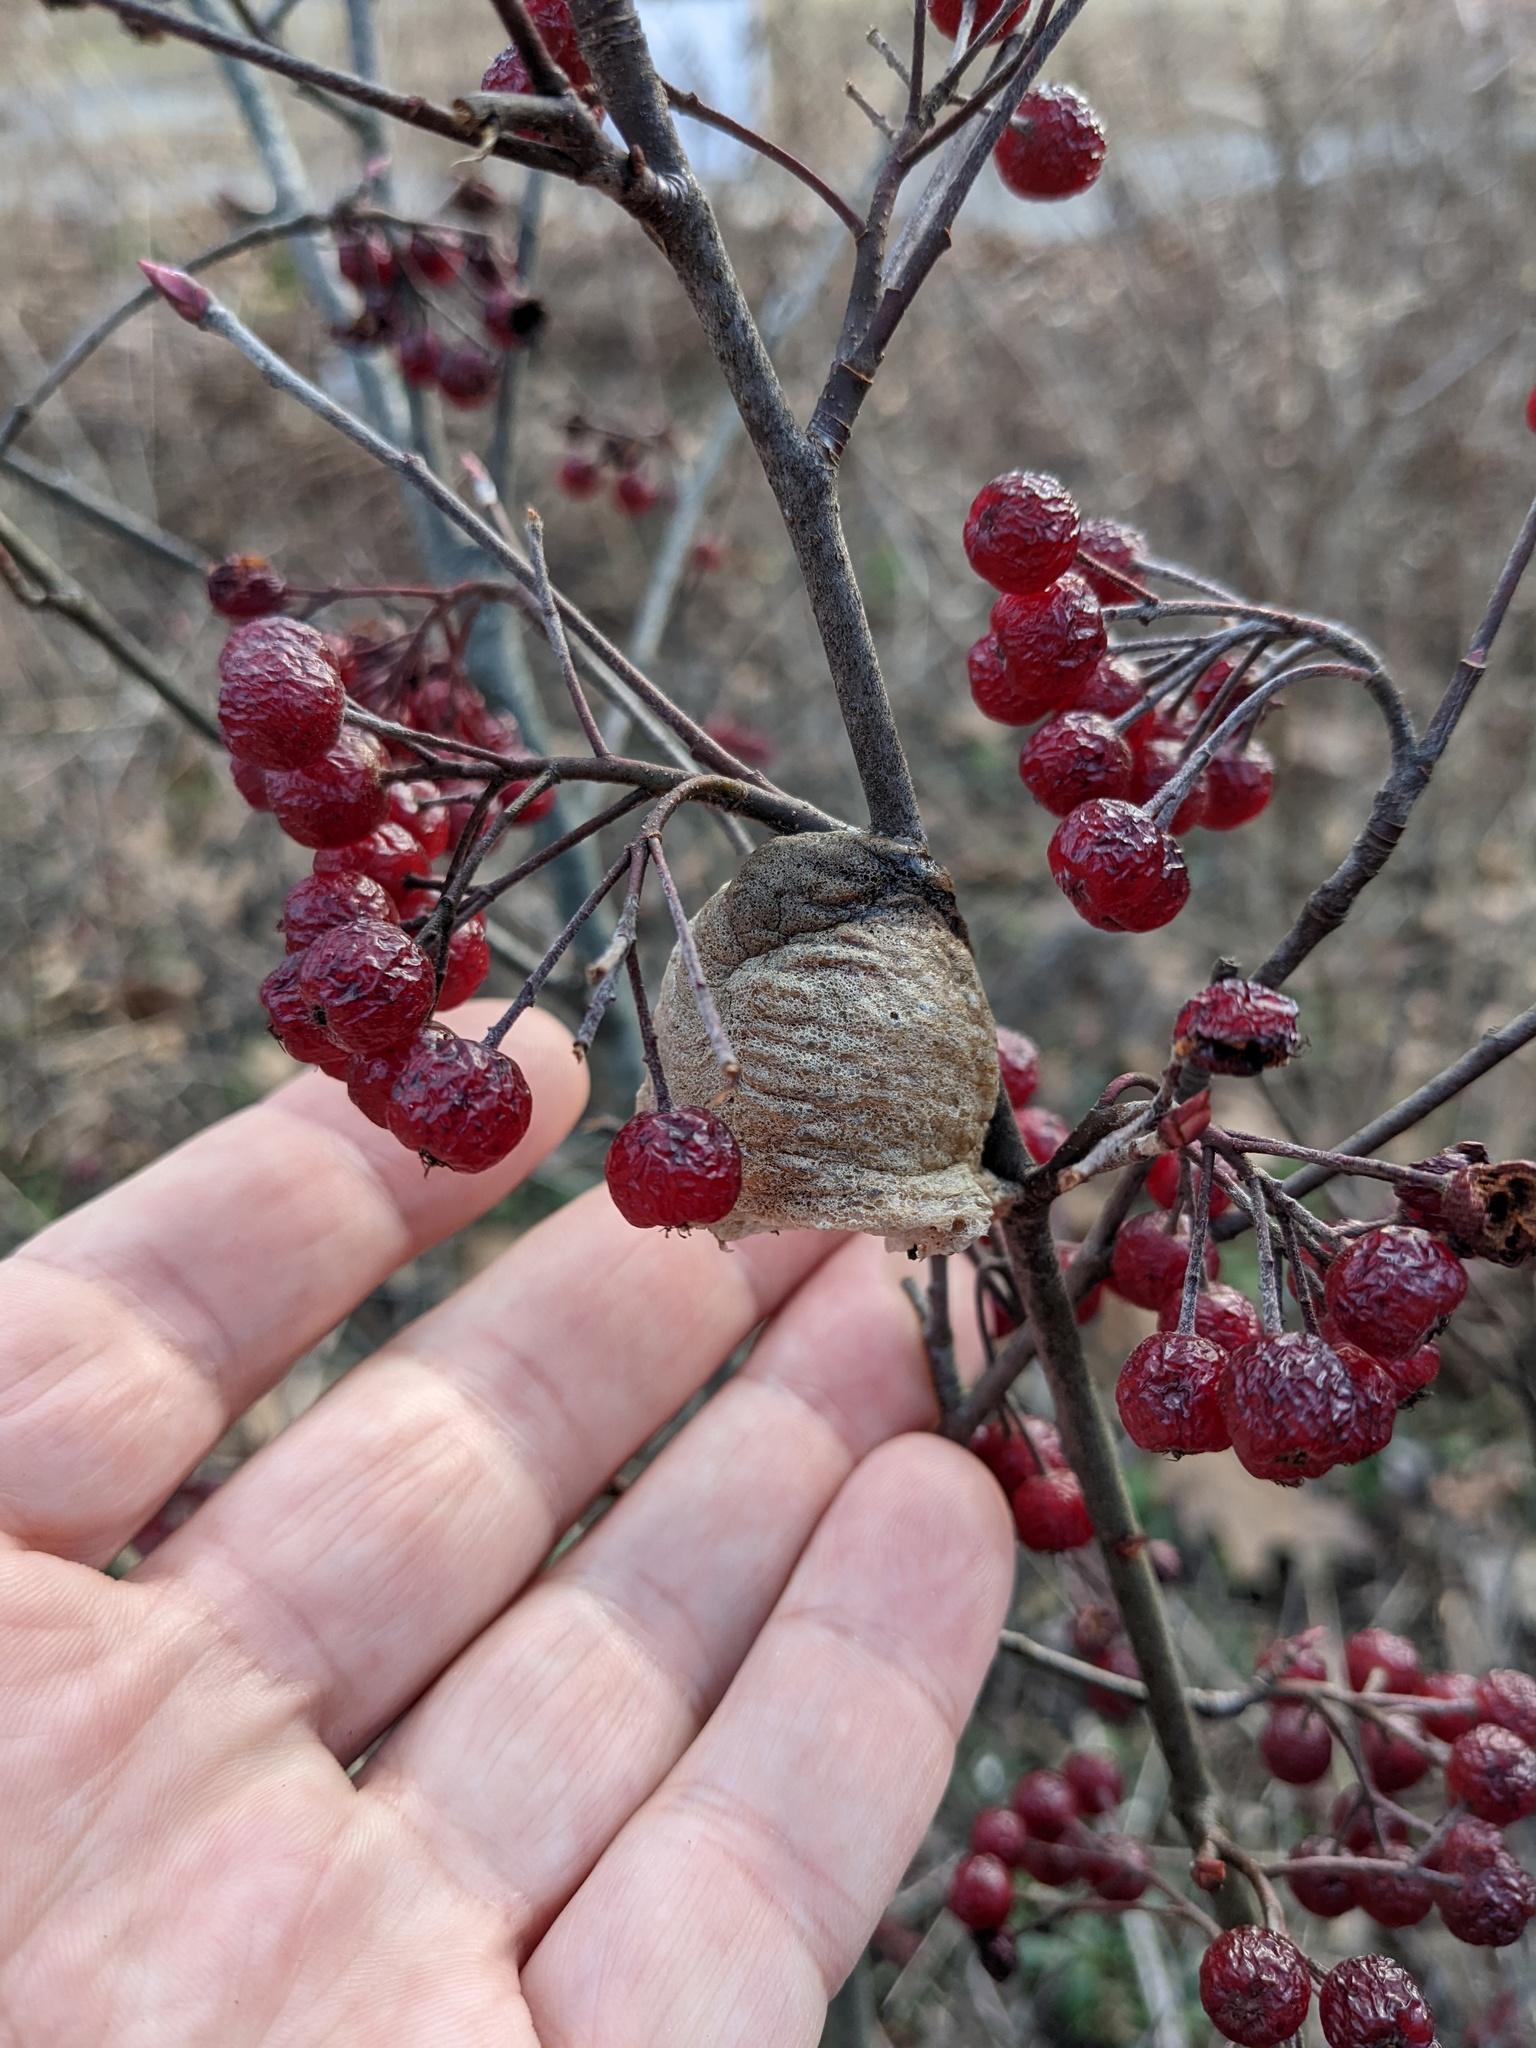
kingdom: Animalia
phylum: Arthropoda
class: Insecta
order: Mantodea
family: Mantidae
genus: Tenodera
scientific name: Tenodera sinensis
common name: Chinese mantis
